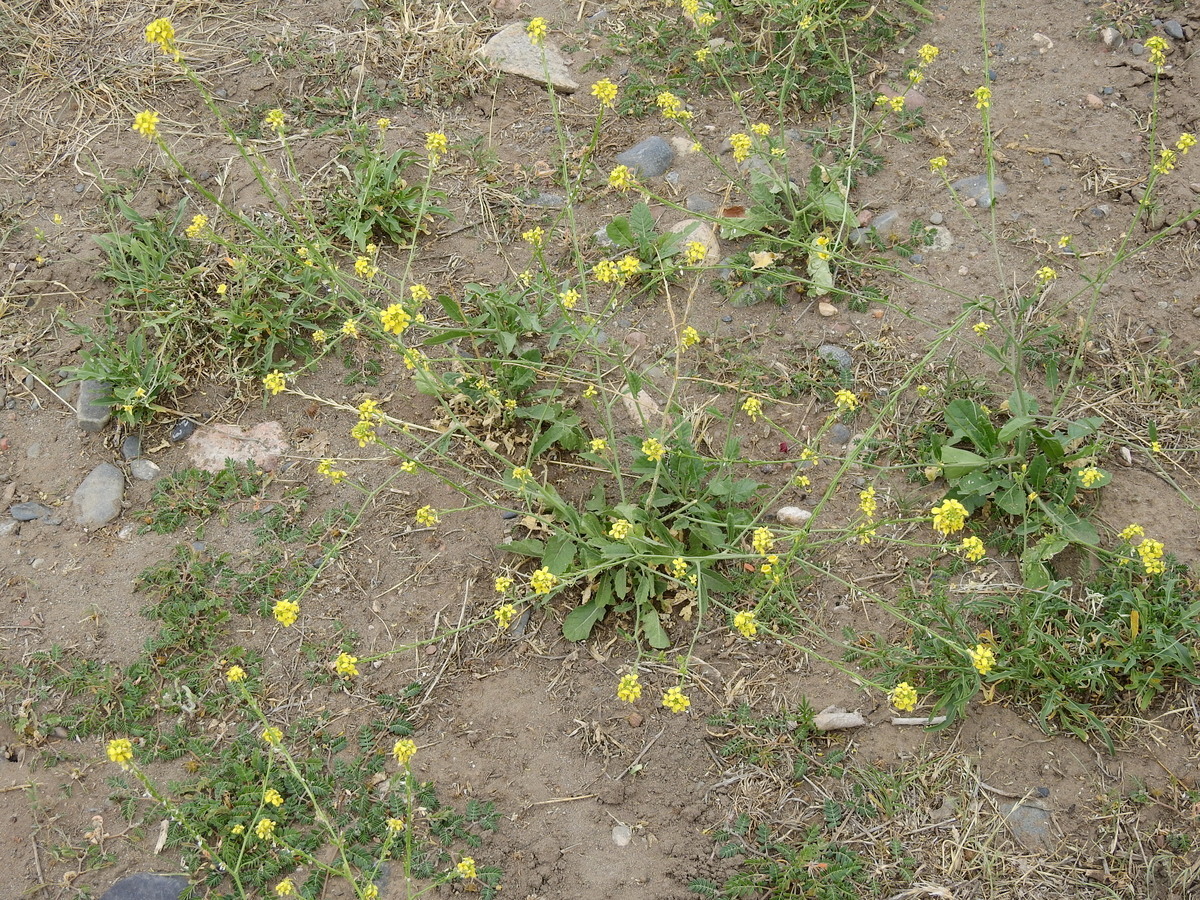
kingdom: Plantae
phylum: Tracheophyta
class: Magnoliopsida
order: Brassicales
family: Brassicaceae
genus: Hirschfeldia
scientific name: Hirschfeldia incana
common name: Hoary mustard
